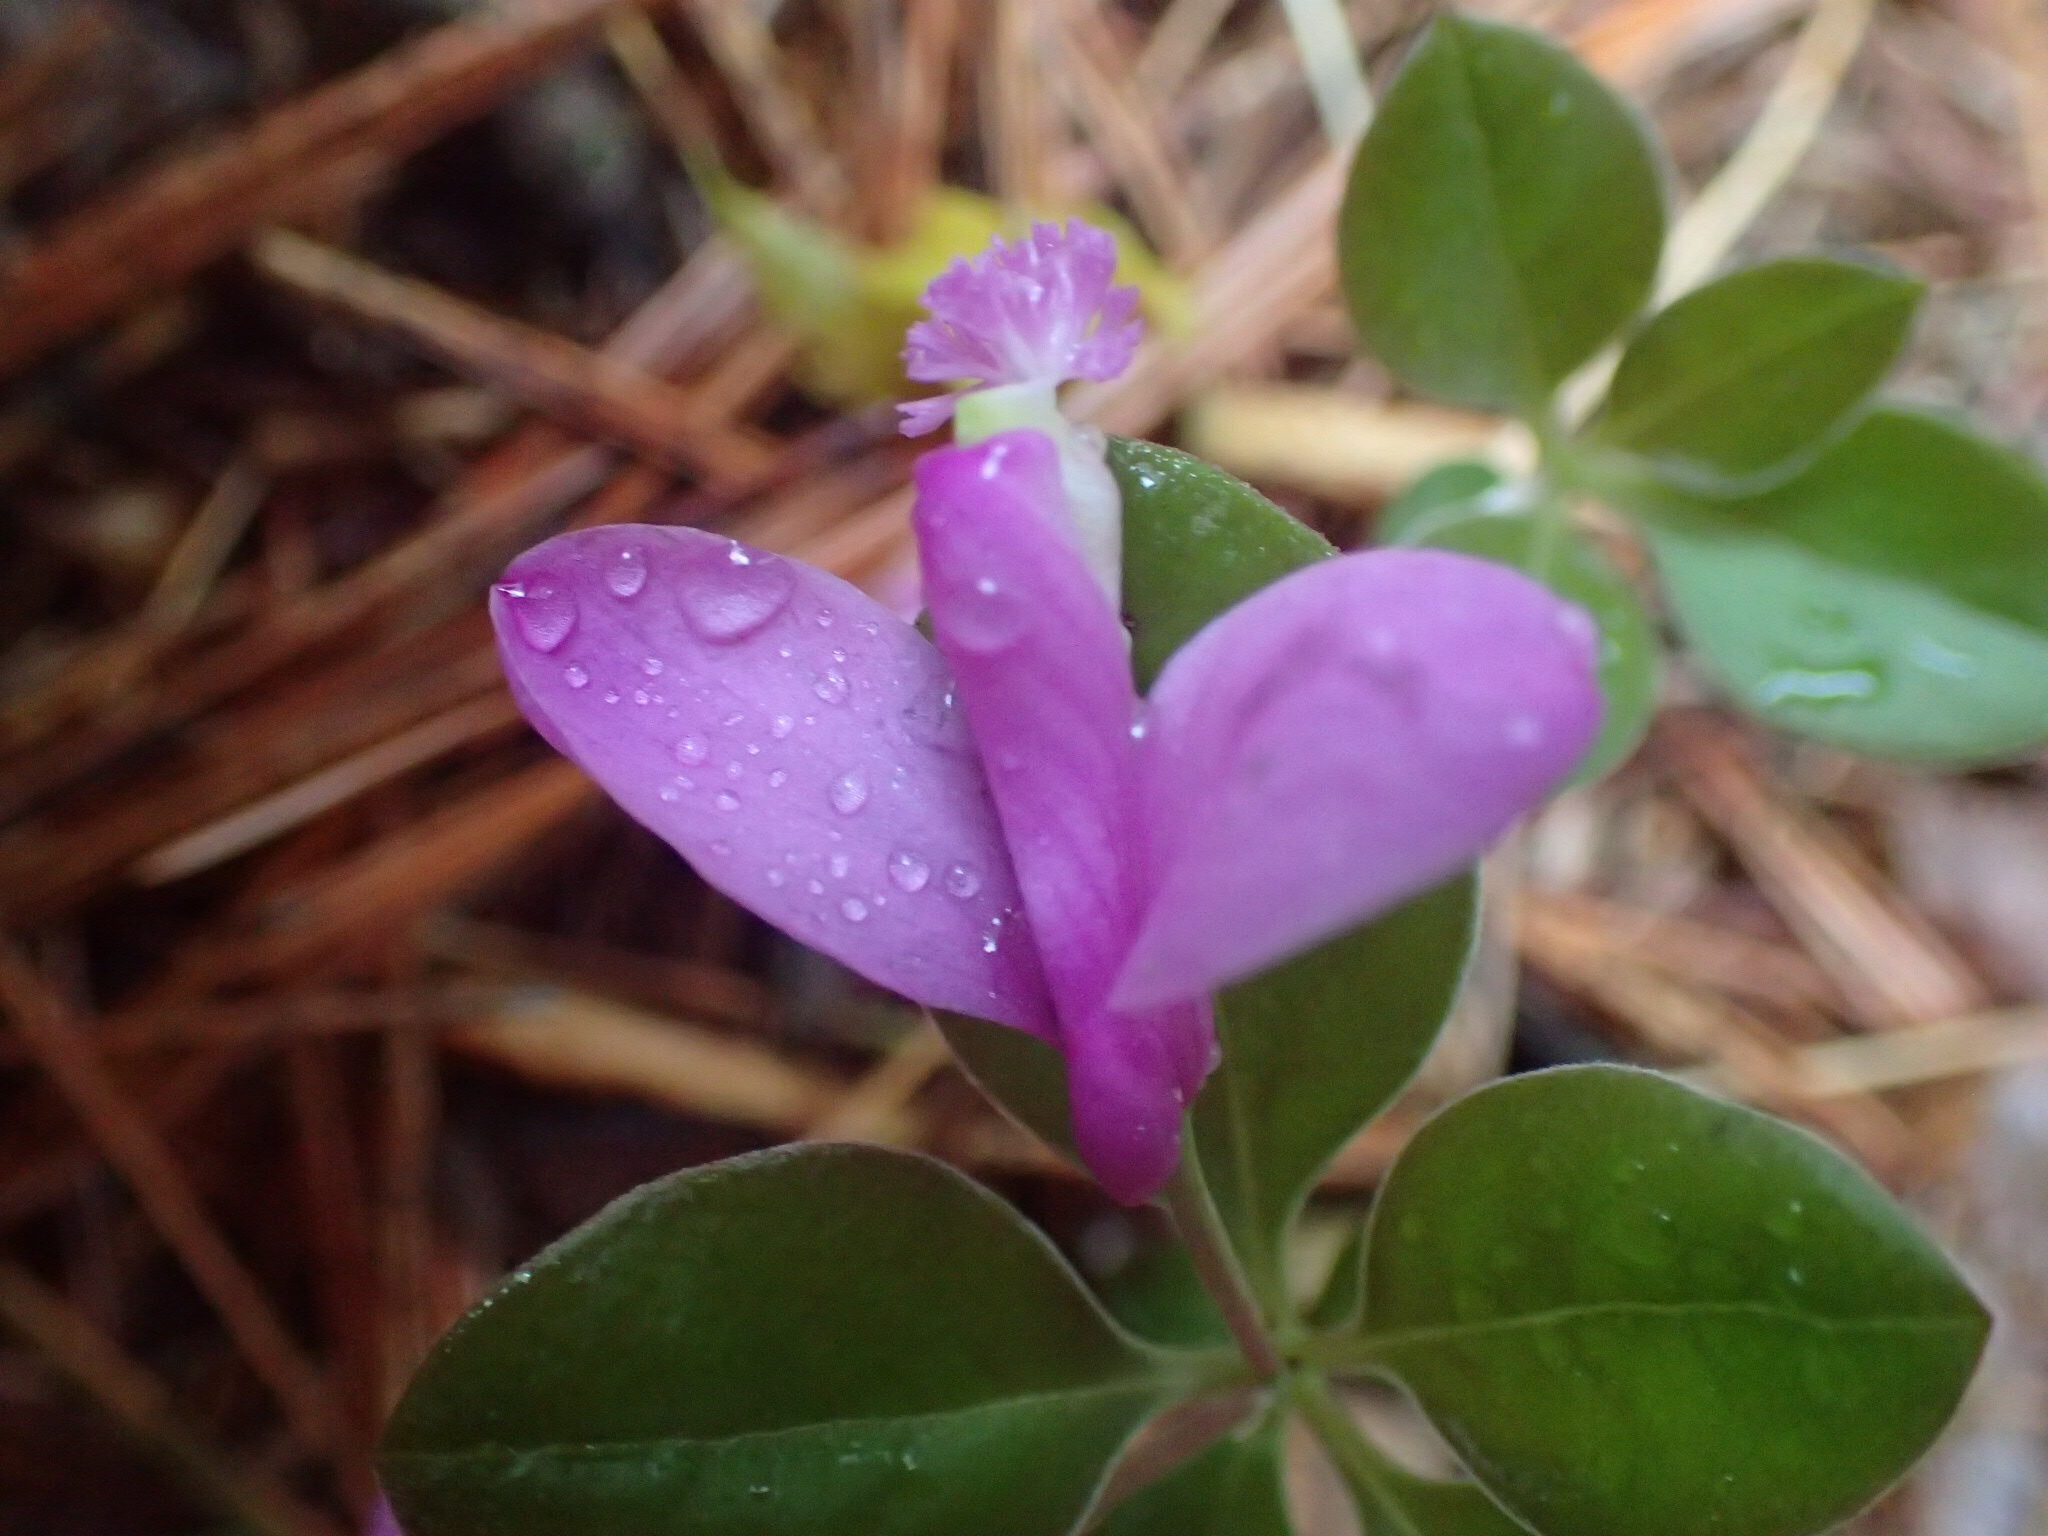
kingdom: Plantae
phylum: Tracheophyta
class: Magnoliopsida
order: Fabales
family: Polygalaceae
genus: Polygaloides
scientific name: Polygaloides paucifolia
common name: Bird-on-the-wing
